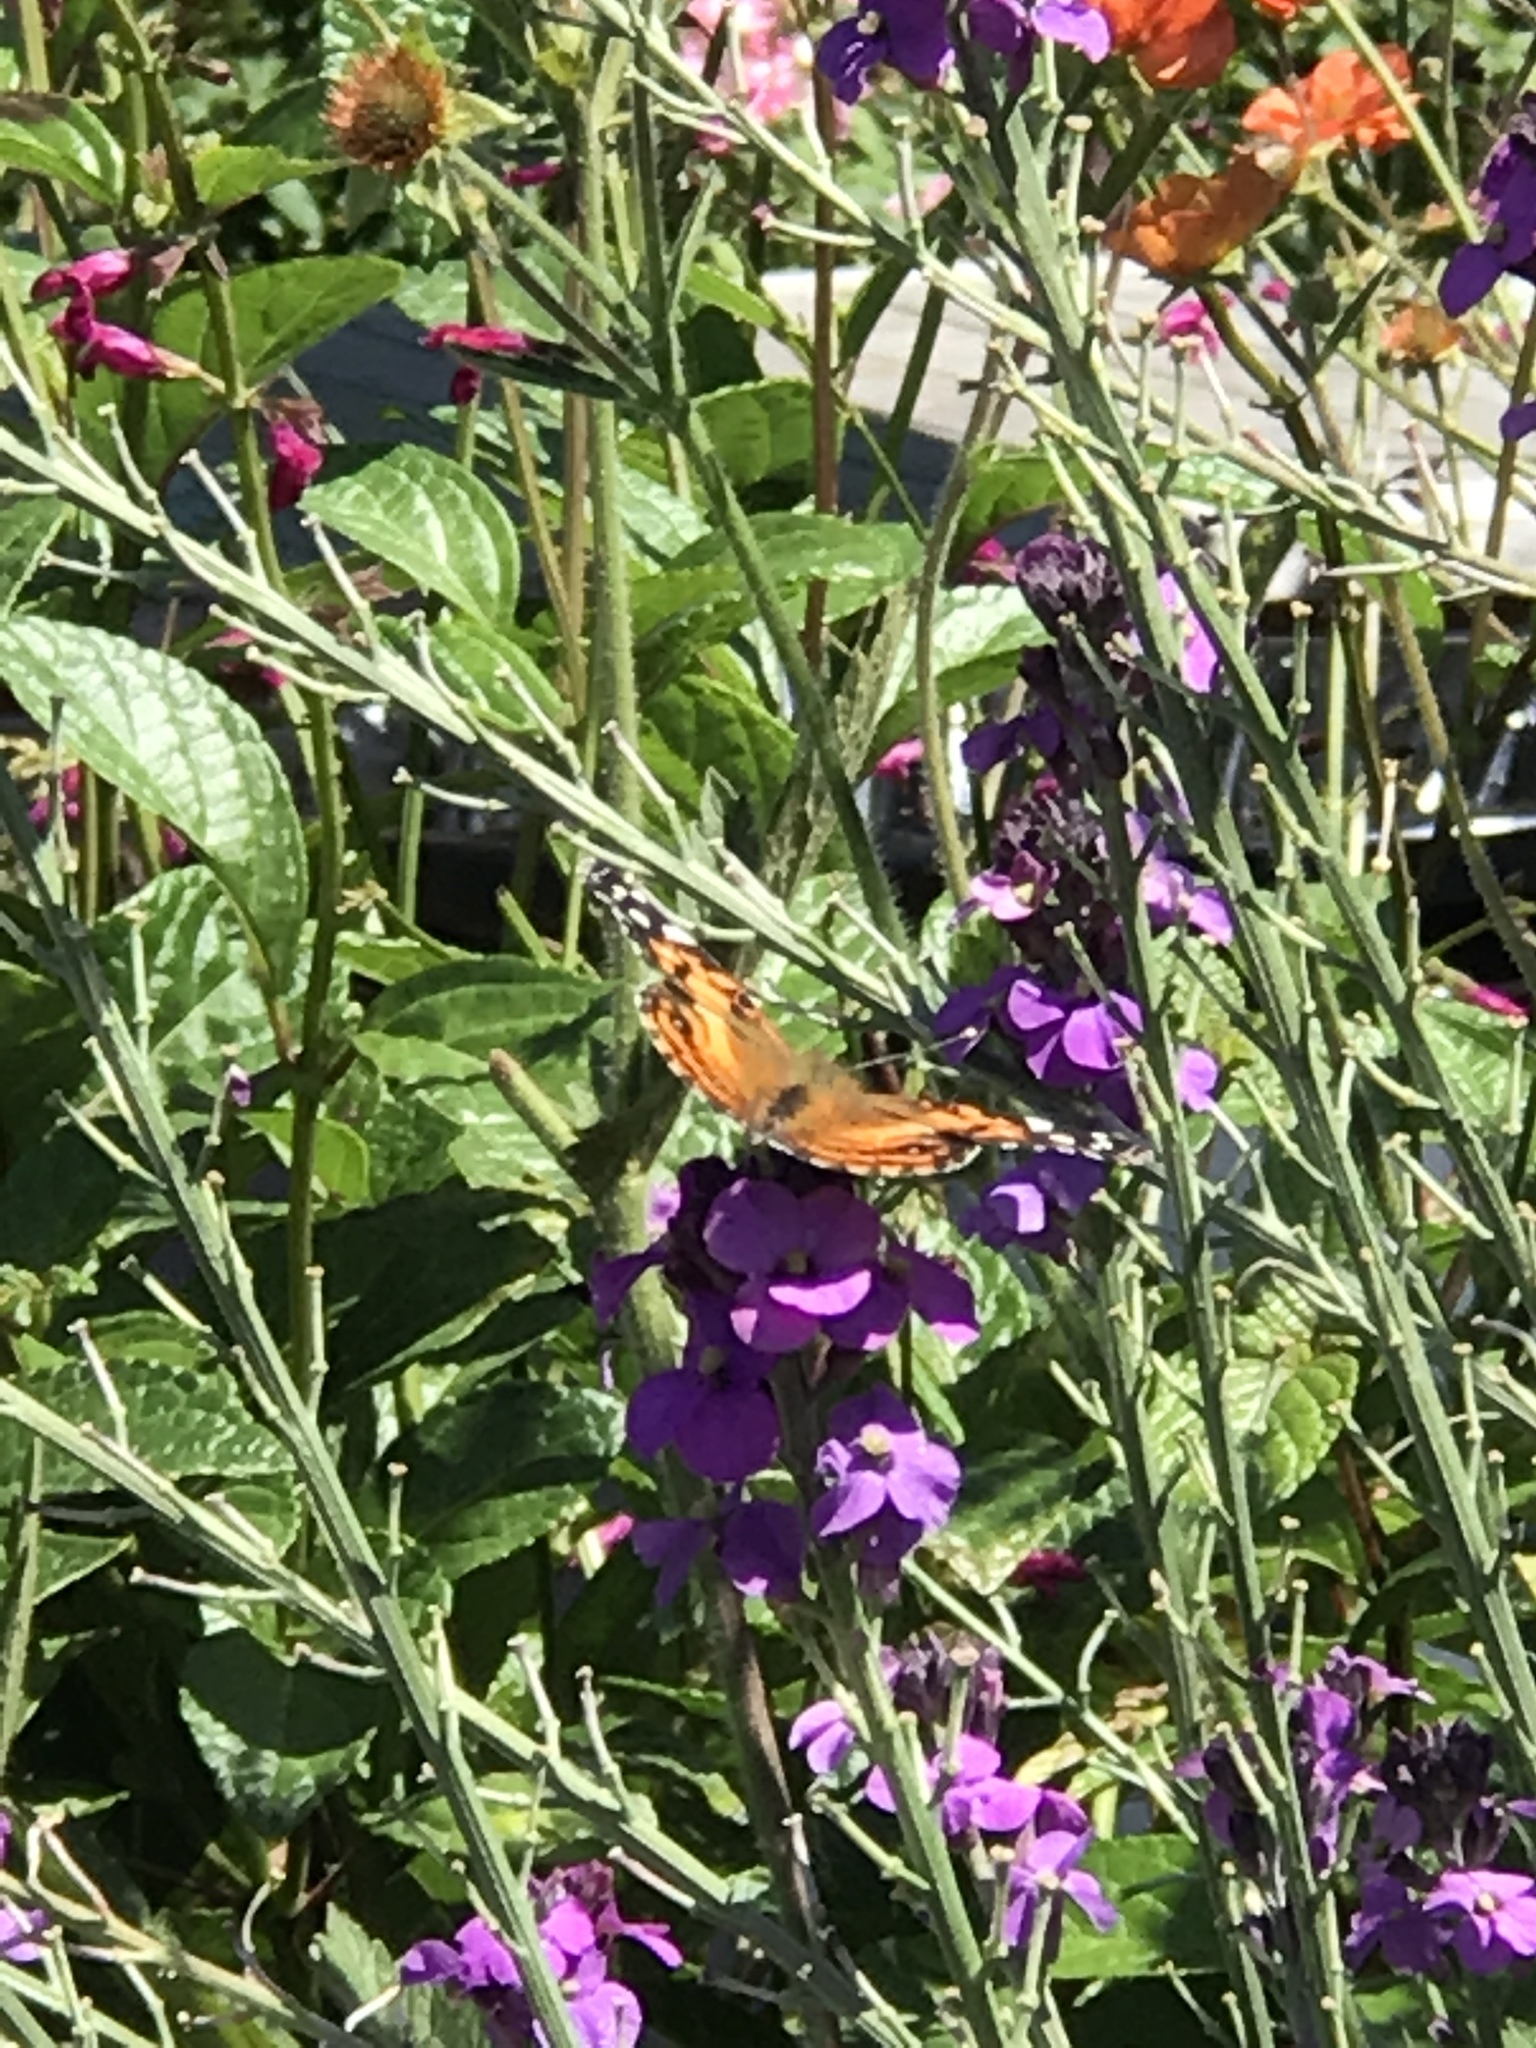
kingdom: Animalia
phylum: Arthropoda
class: Insecta
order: Lepidoptera
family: Nymphalidae
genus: Vanessa
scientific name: Vanessa virginiensis
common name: American lady
